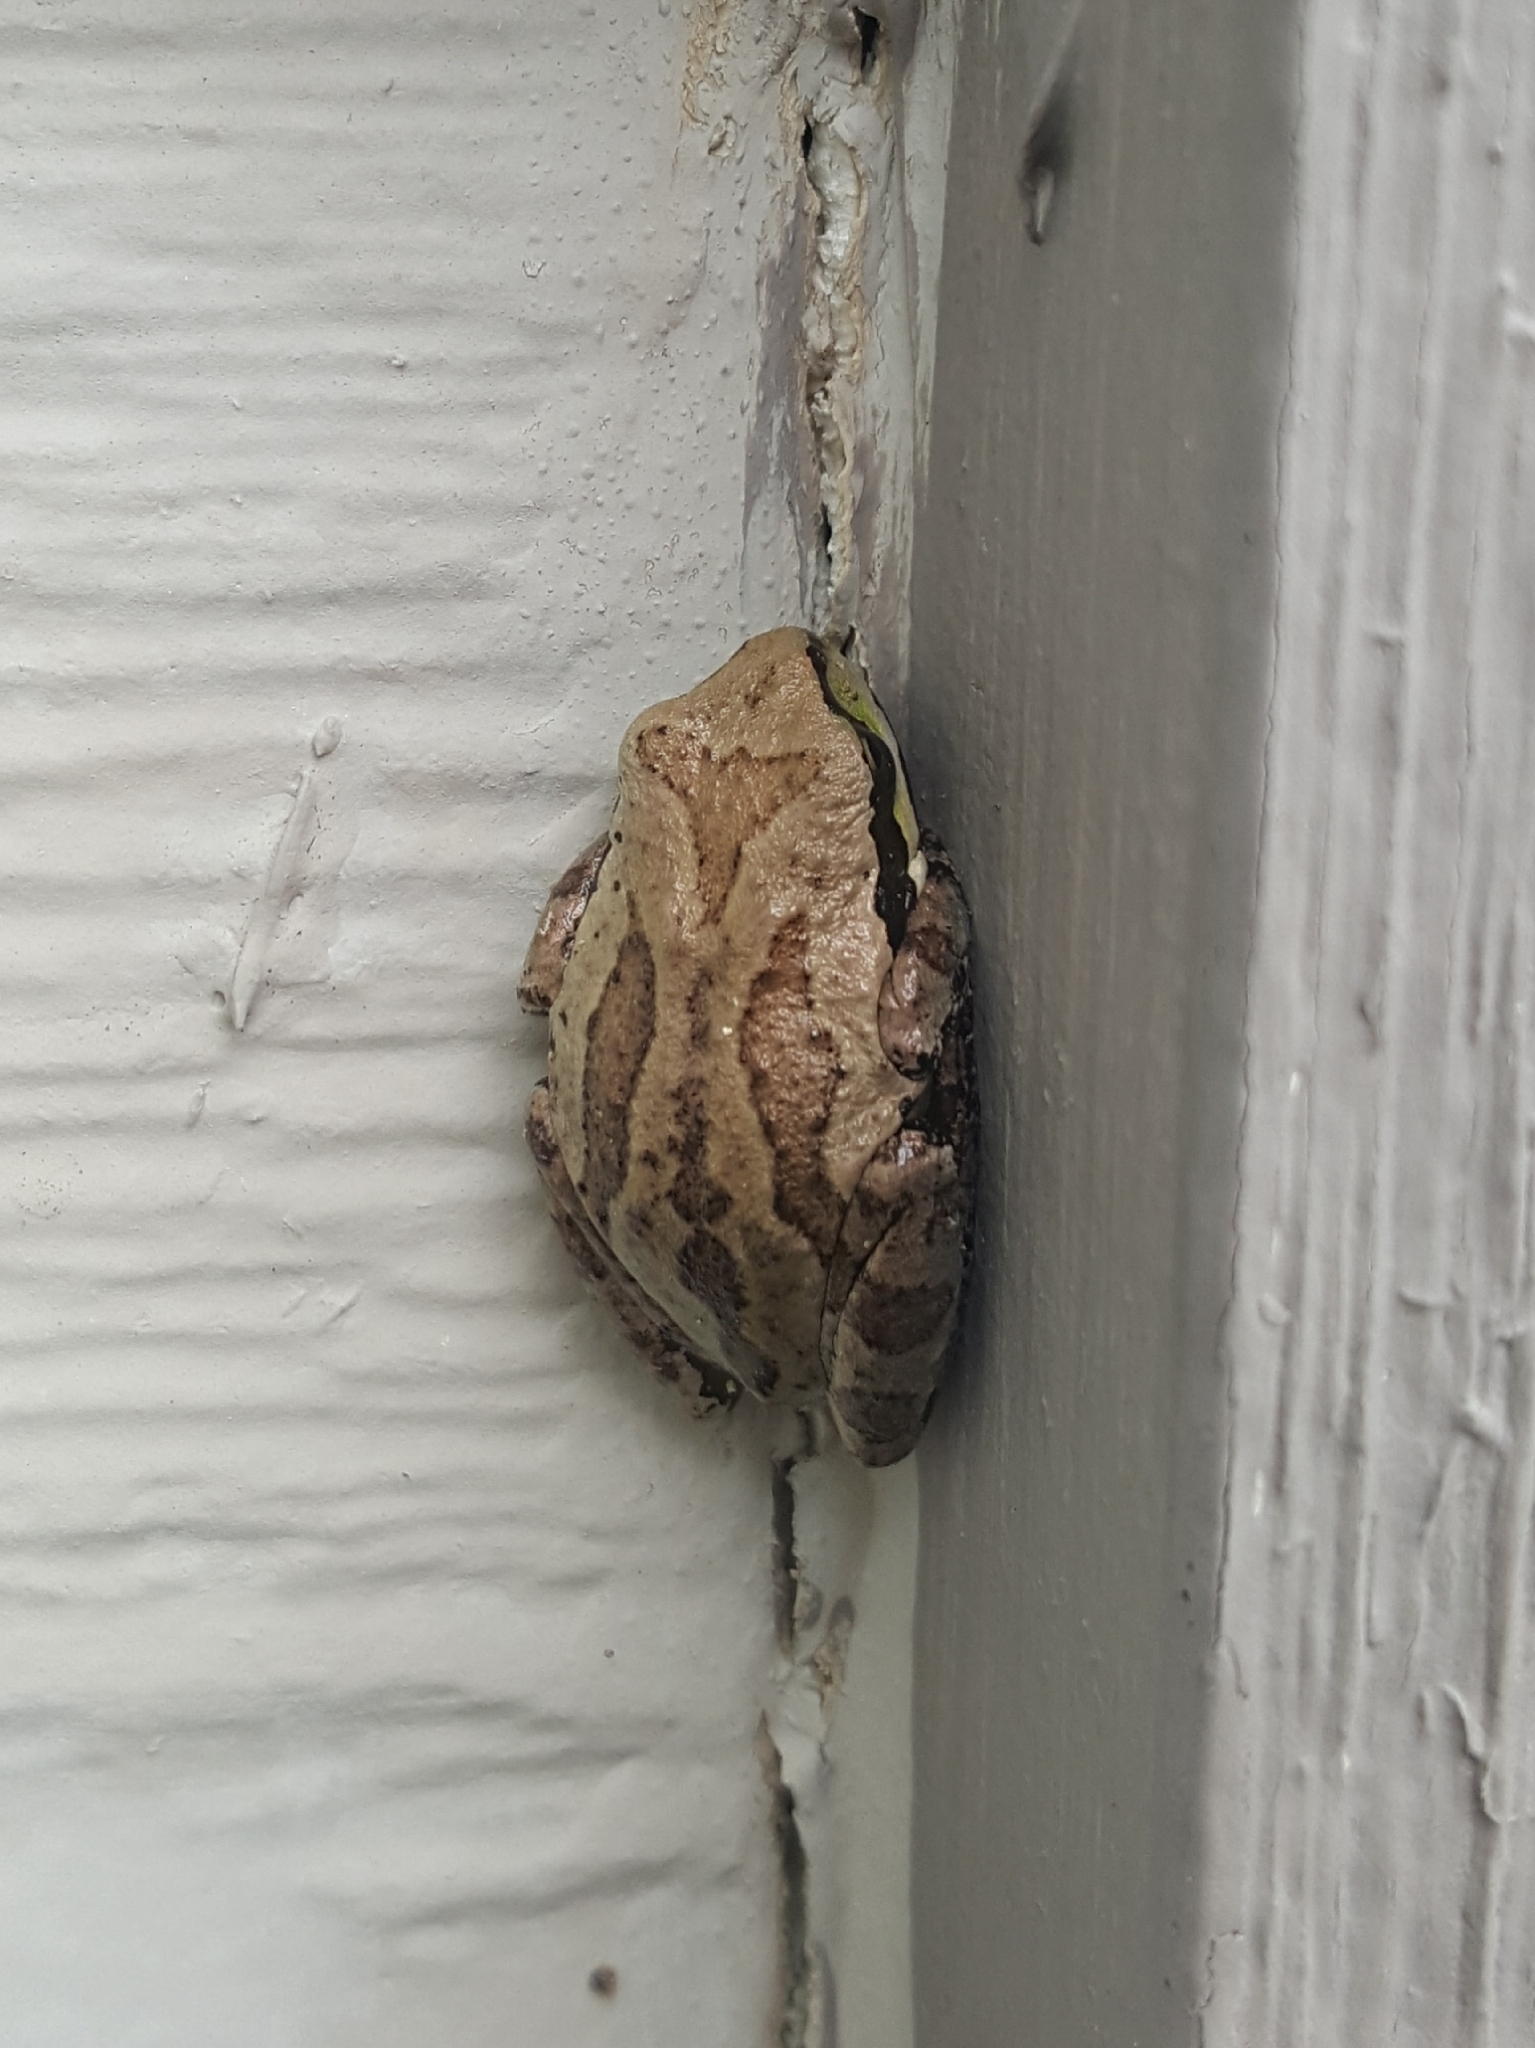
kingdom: Animalia
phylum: Chordata
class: Amphibia
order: Anura
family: Hylidae
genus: Pseudacris
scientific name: Pseudacris regilla
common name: Pacific chorus frog
